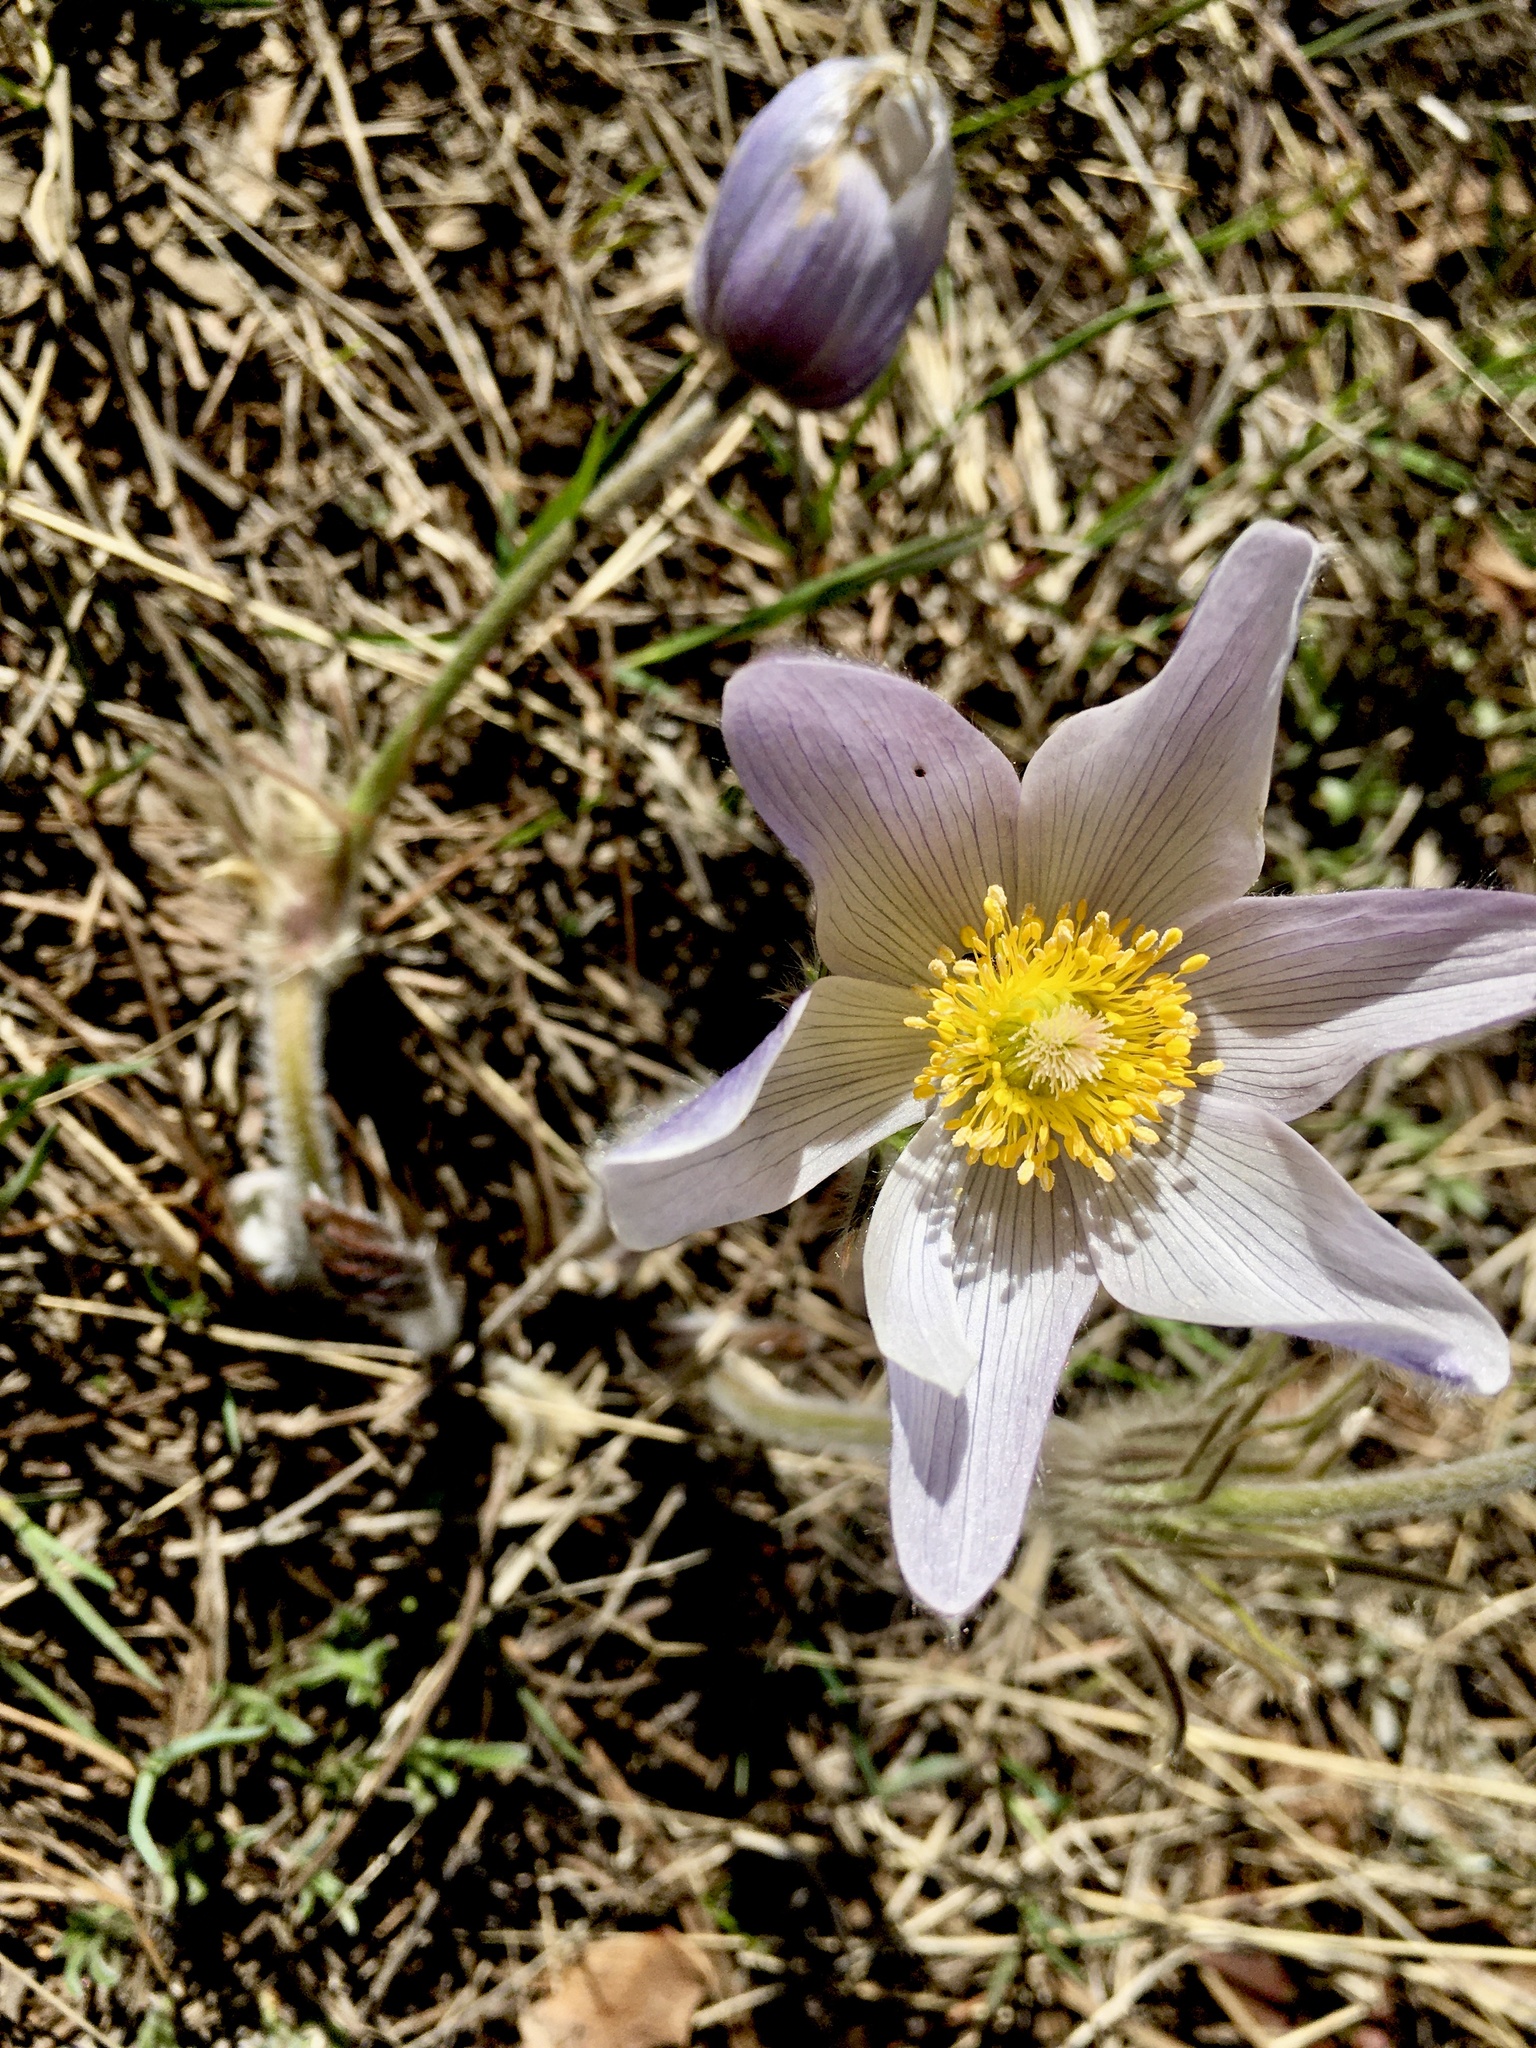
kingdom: Plantae
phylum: Tracheophyta
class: Magnoliopsida
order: Ranunculales
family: Ranunculaceae
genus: Pulsatilla
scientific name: Pulsatilla nuttalliana
